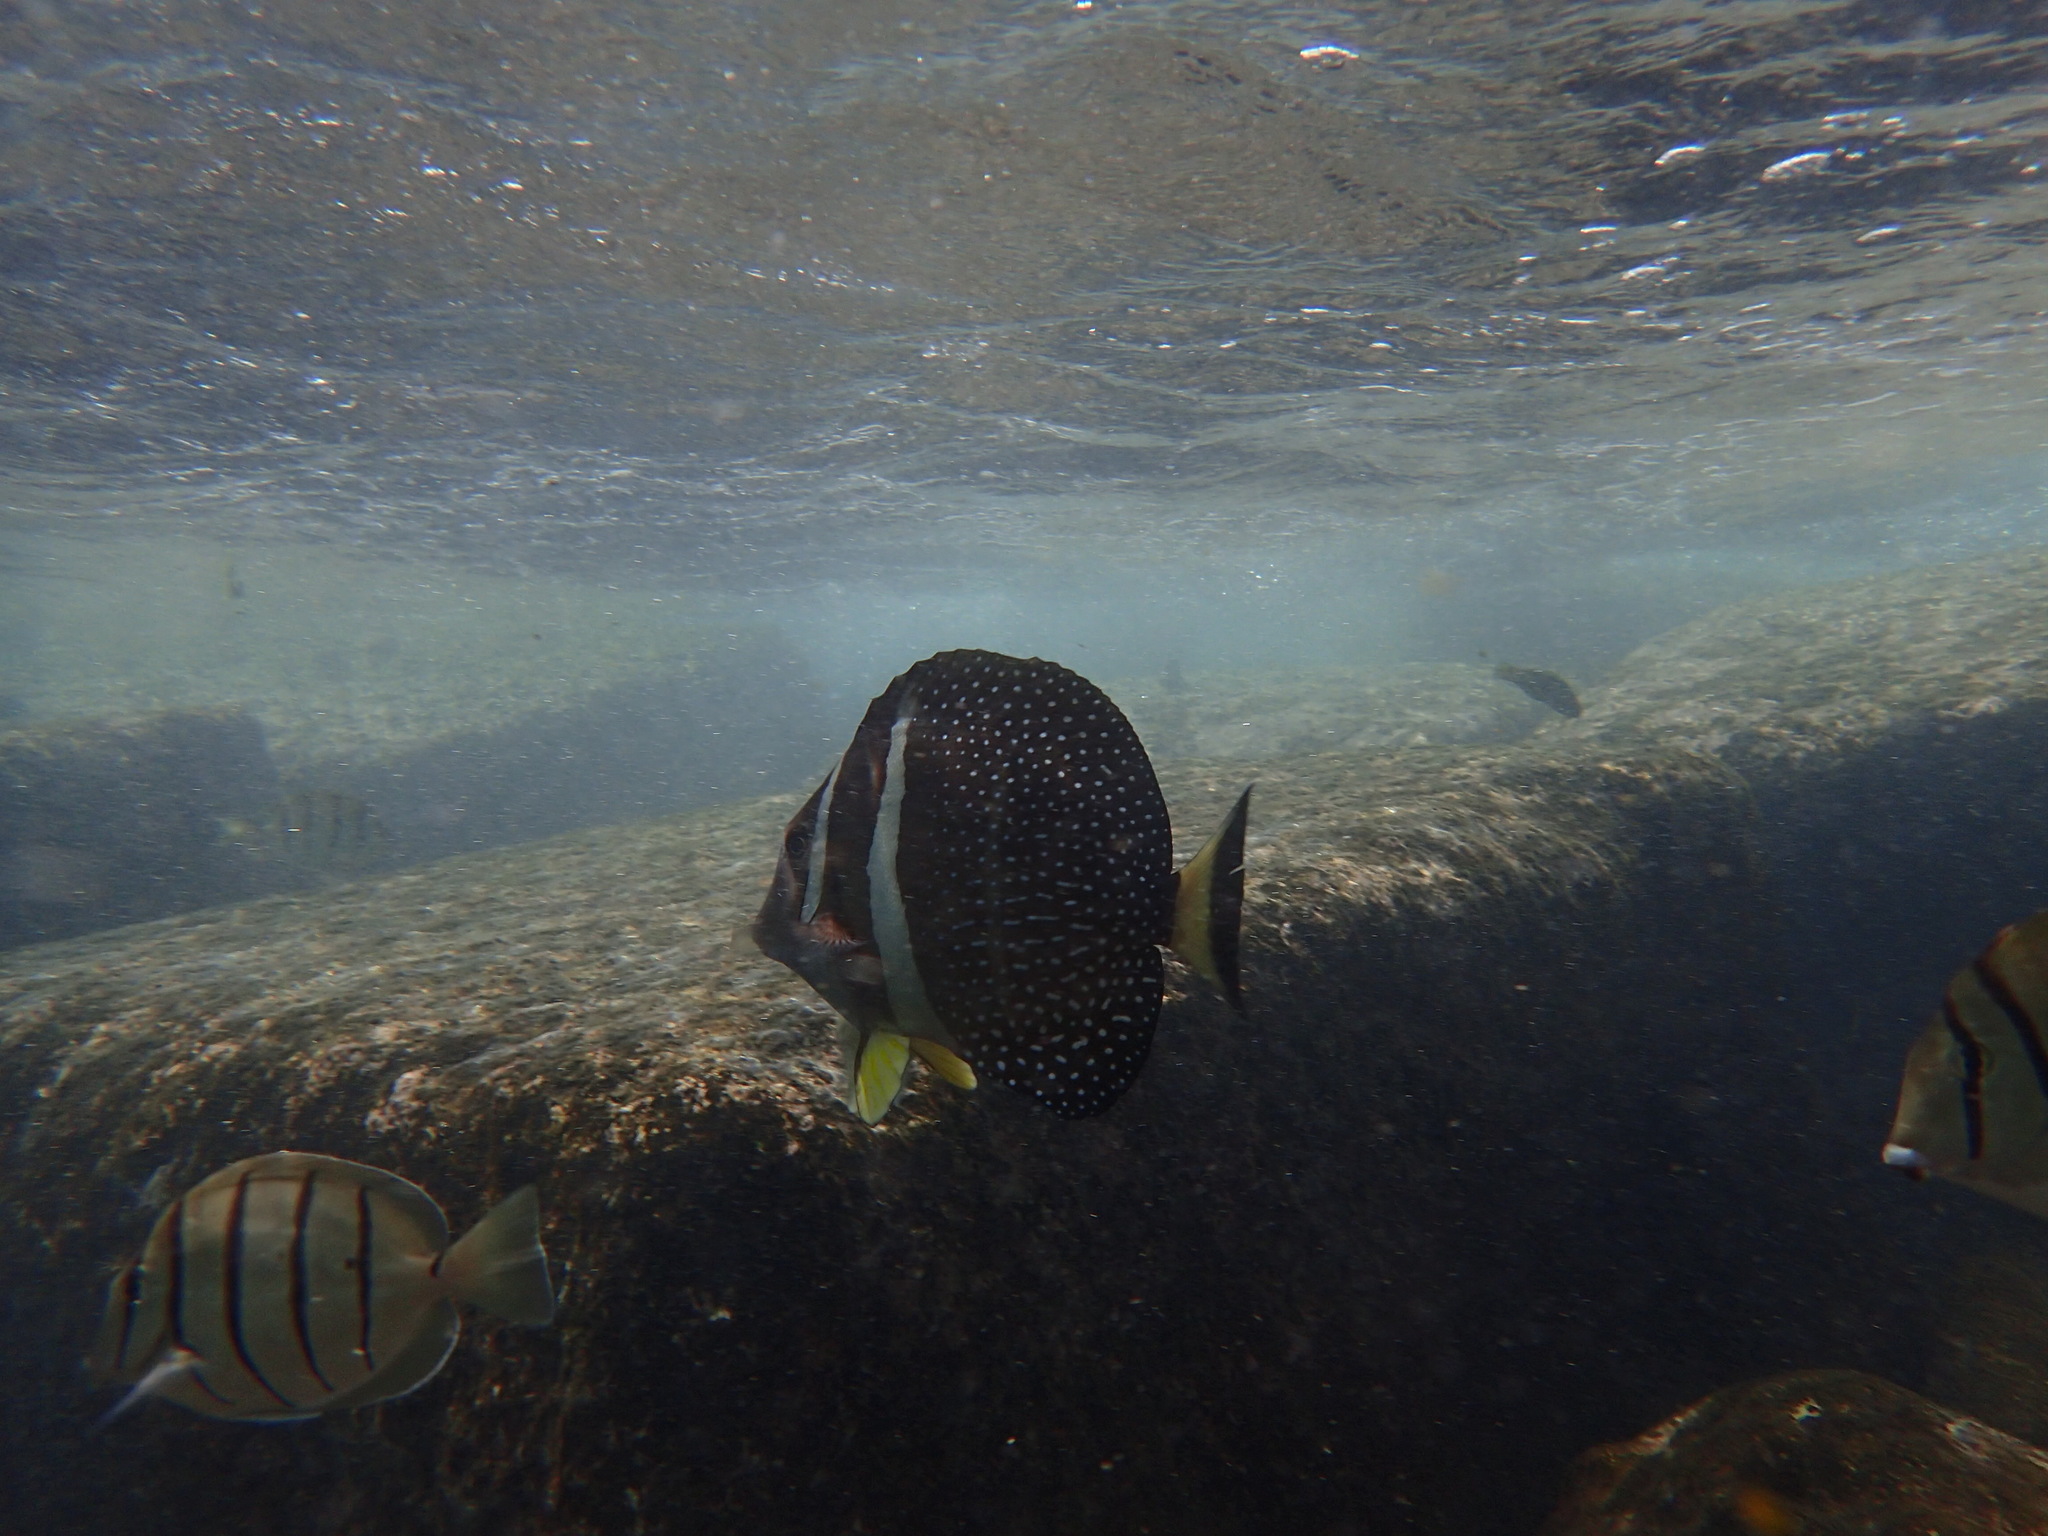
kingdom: Animalia
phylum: Chordata
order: Perciformes
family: Acanthuridae
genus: Acanthurus
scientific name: Acanthurus guttatus
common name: Whitespotted surgeonfish
